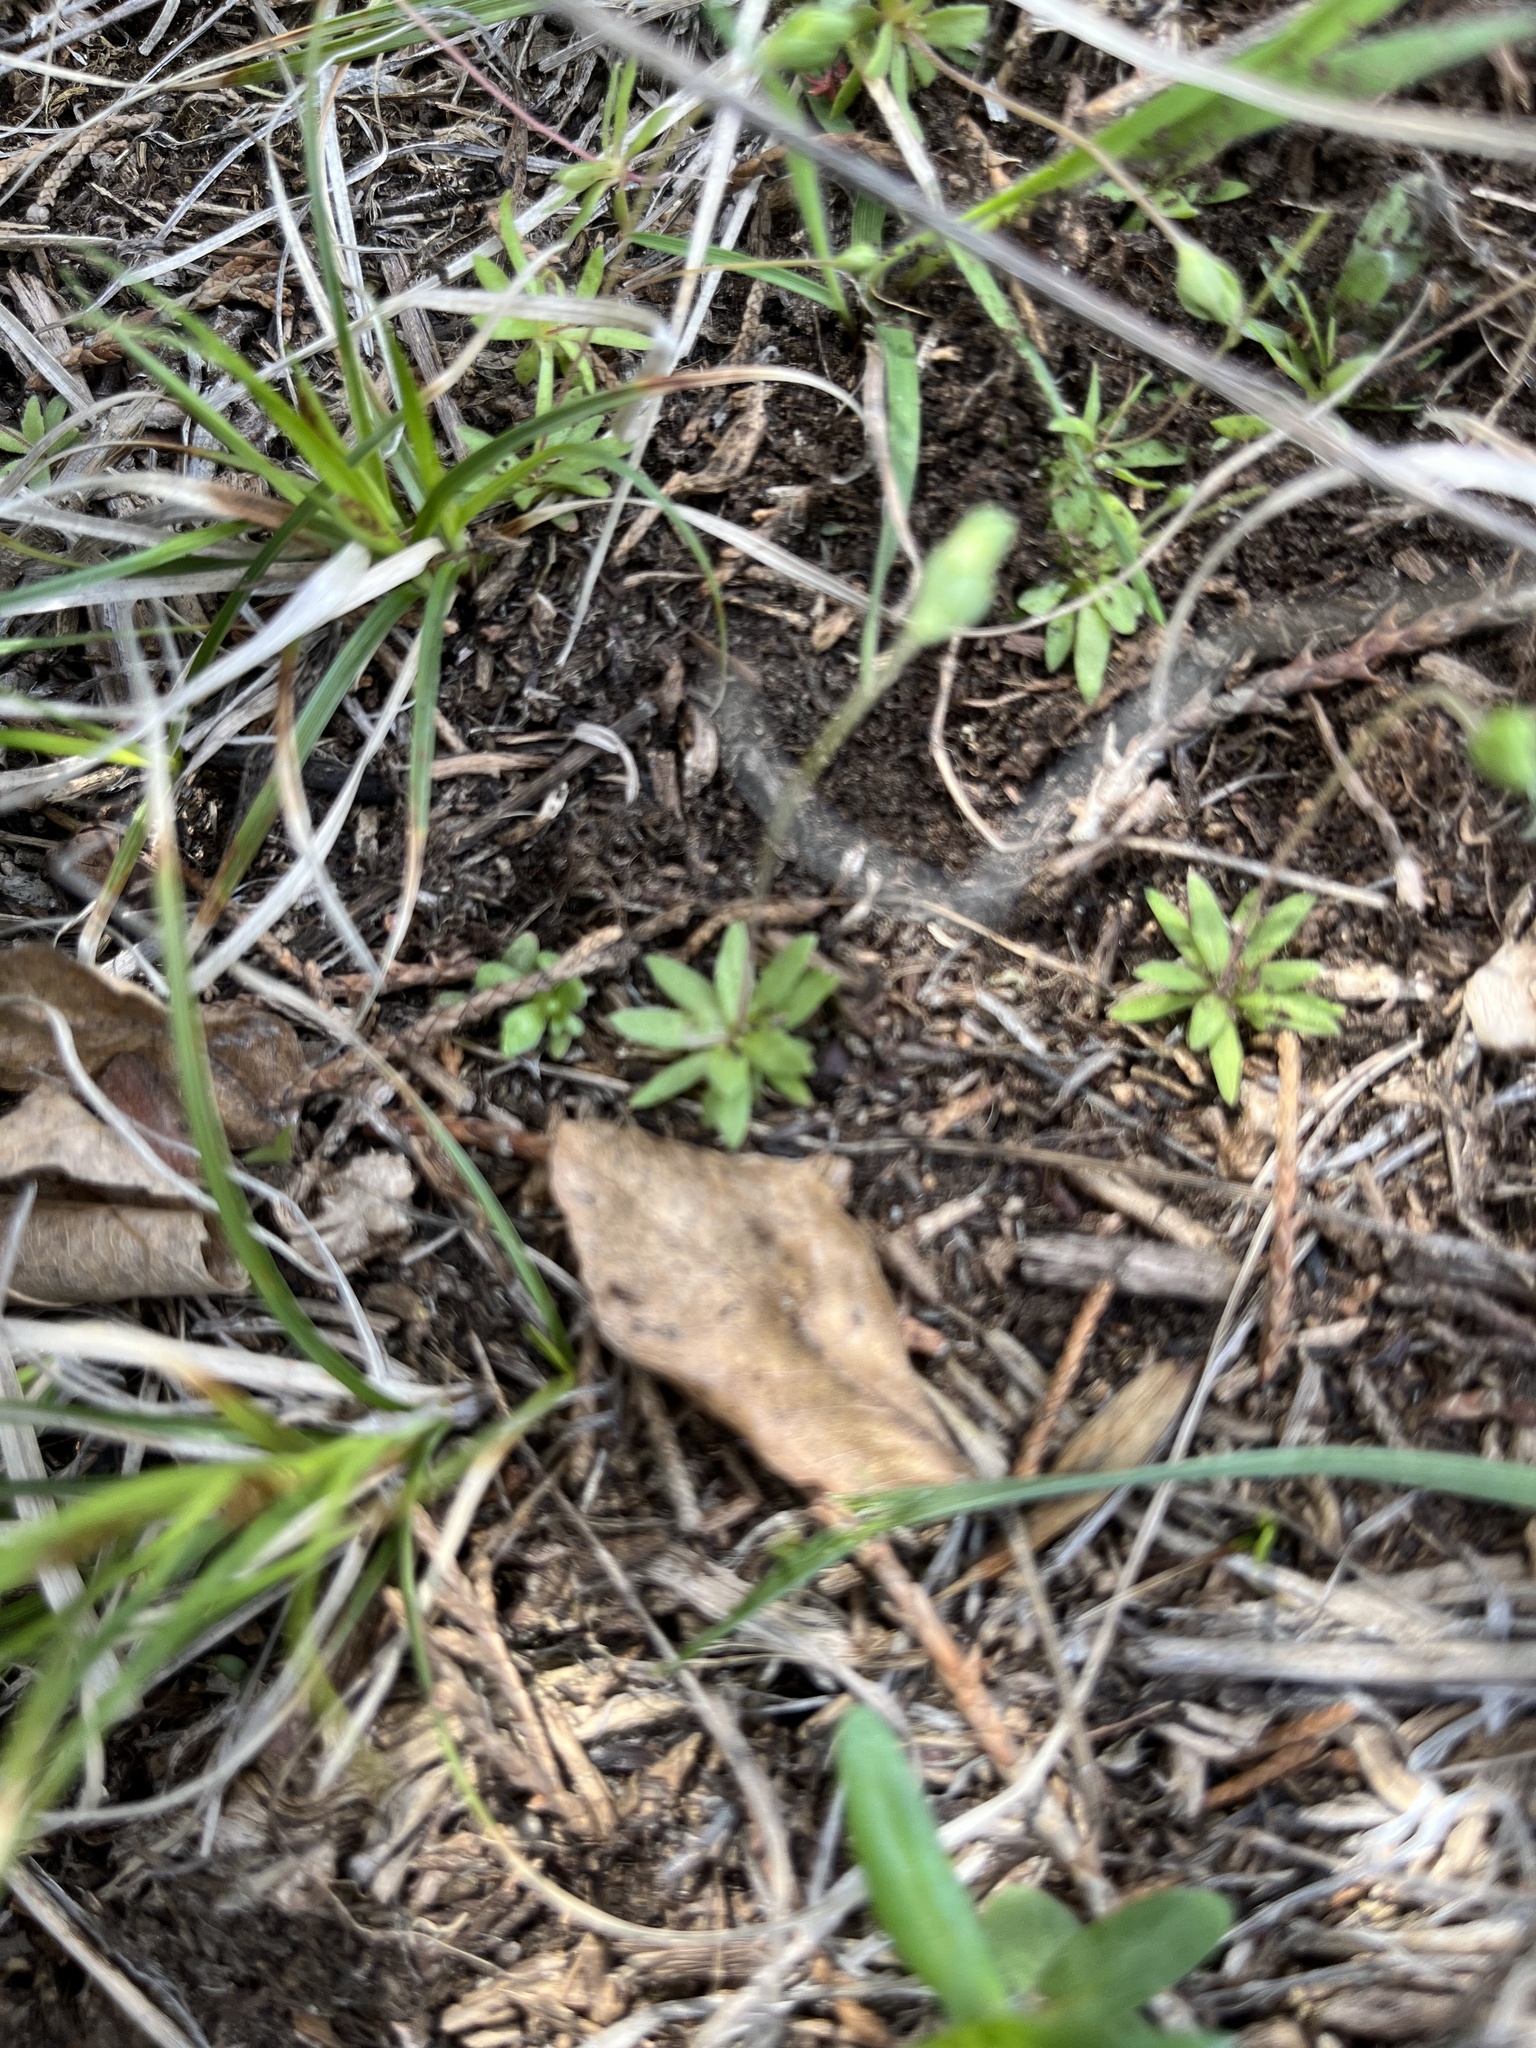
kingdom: Plantae
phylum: Tracheophyta
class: Magnoliopsida
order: Ericales
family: Primulaceae
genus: Androsace
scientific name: Androsace occidentalis
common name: West rock-jasmine
